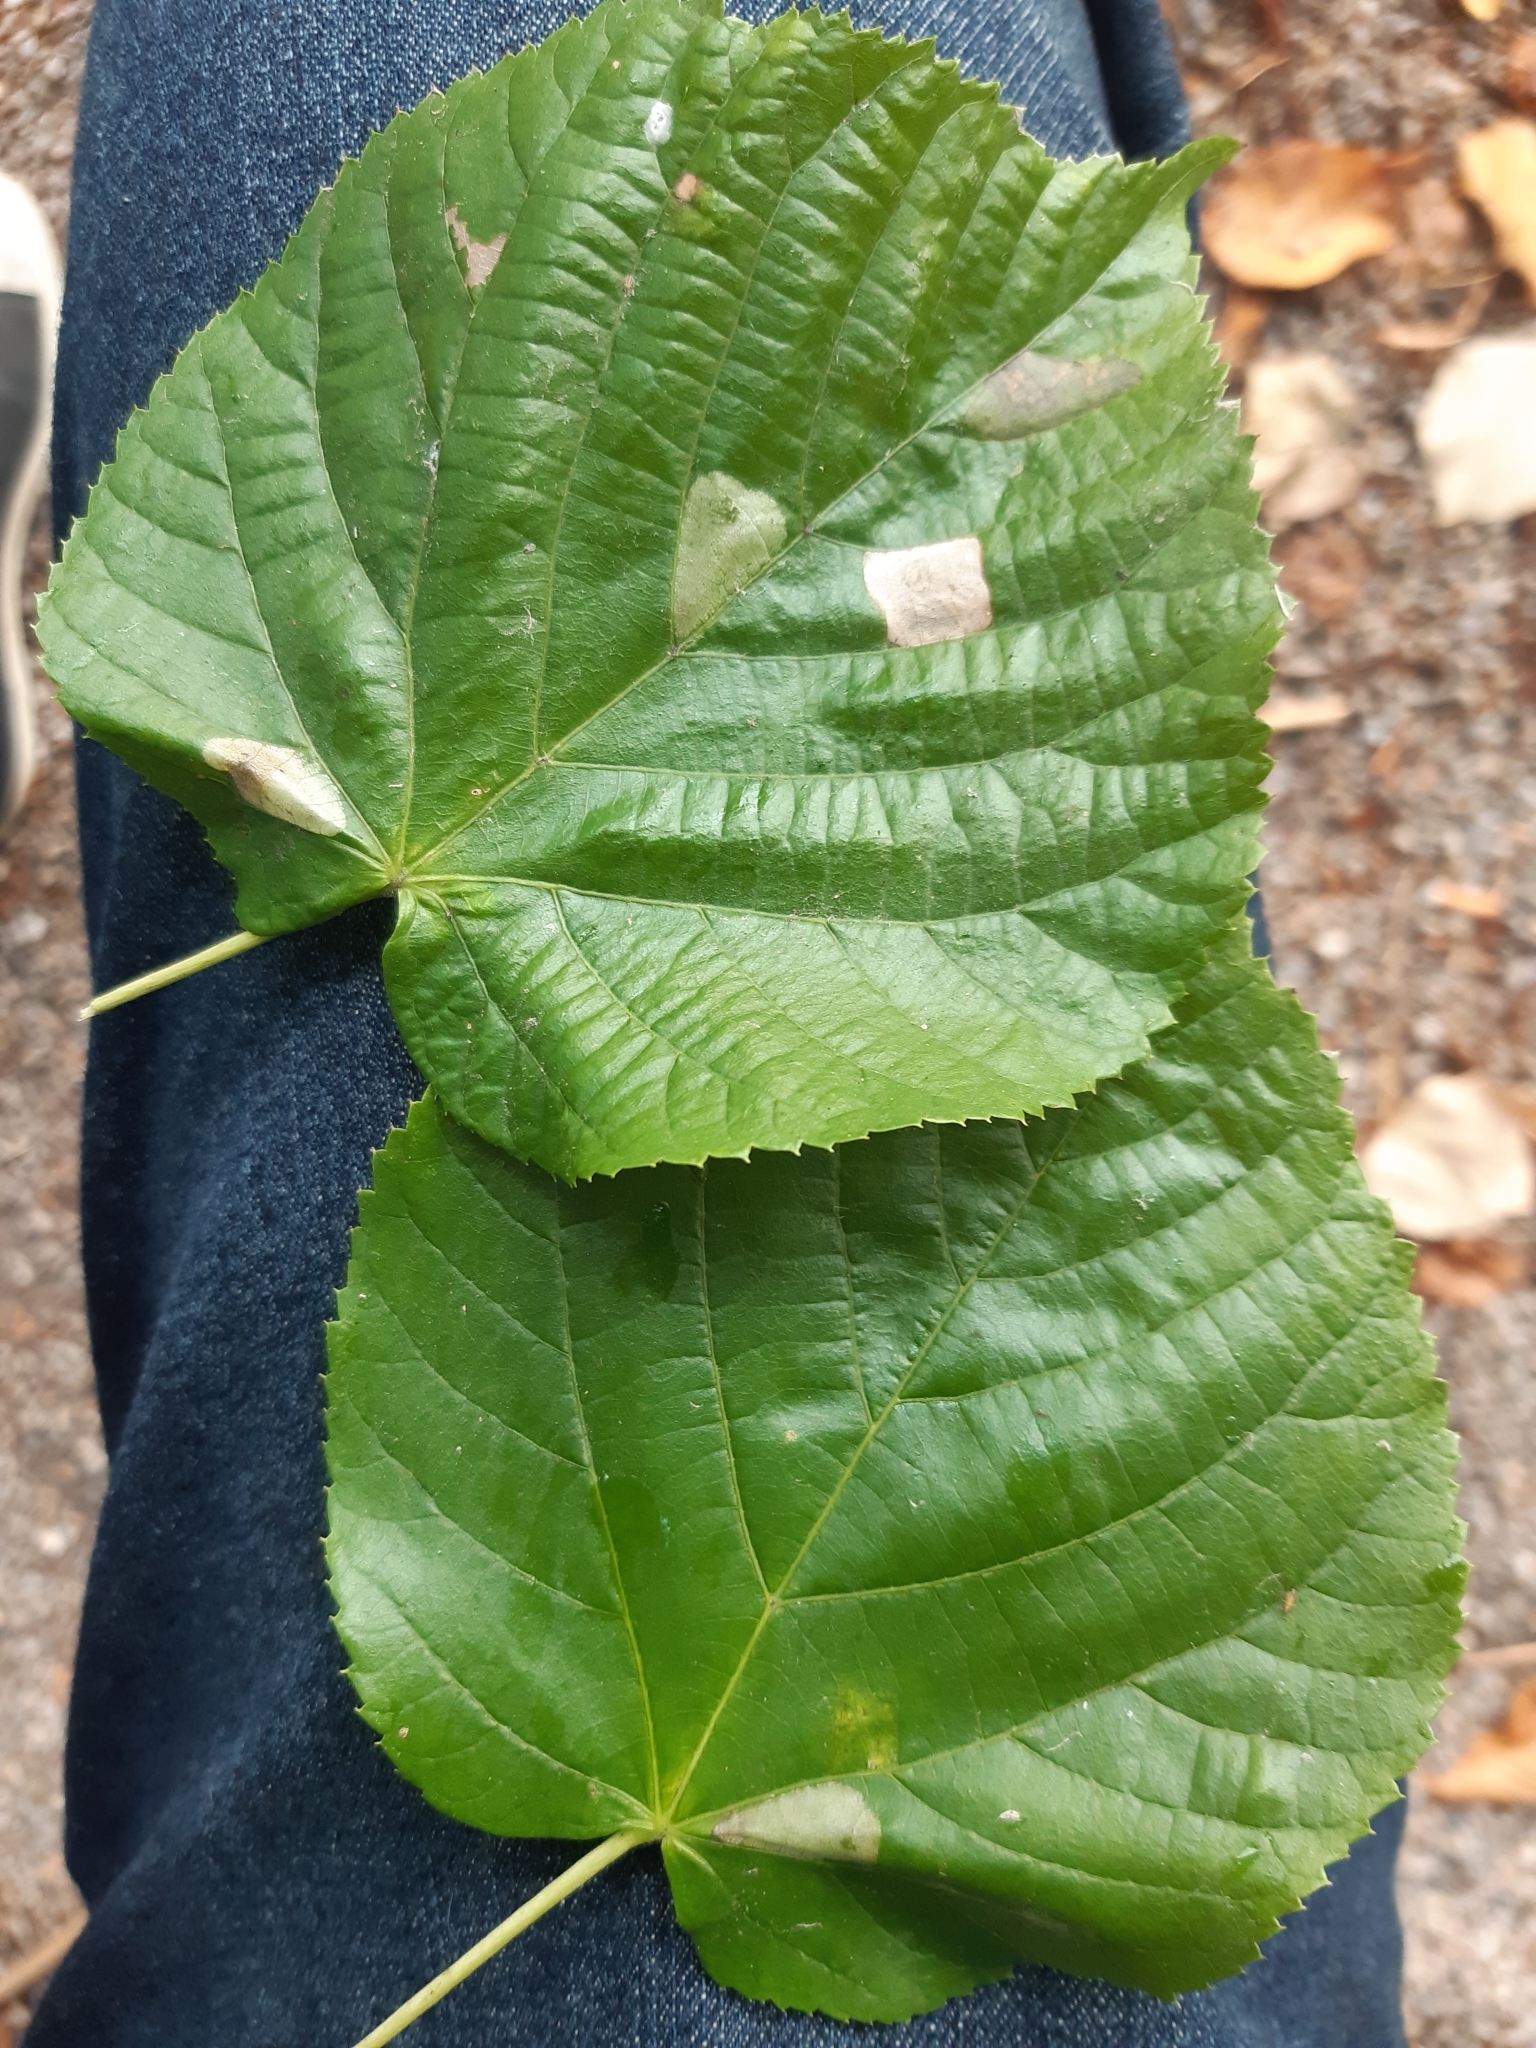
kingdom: Animalia
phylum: Arthropoda
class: Insecta
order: Lepidoptera
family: Gracillariidae
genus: Phyllonorycter
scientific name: Phyllonorycter issikii
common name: Linden midget
